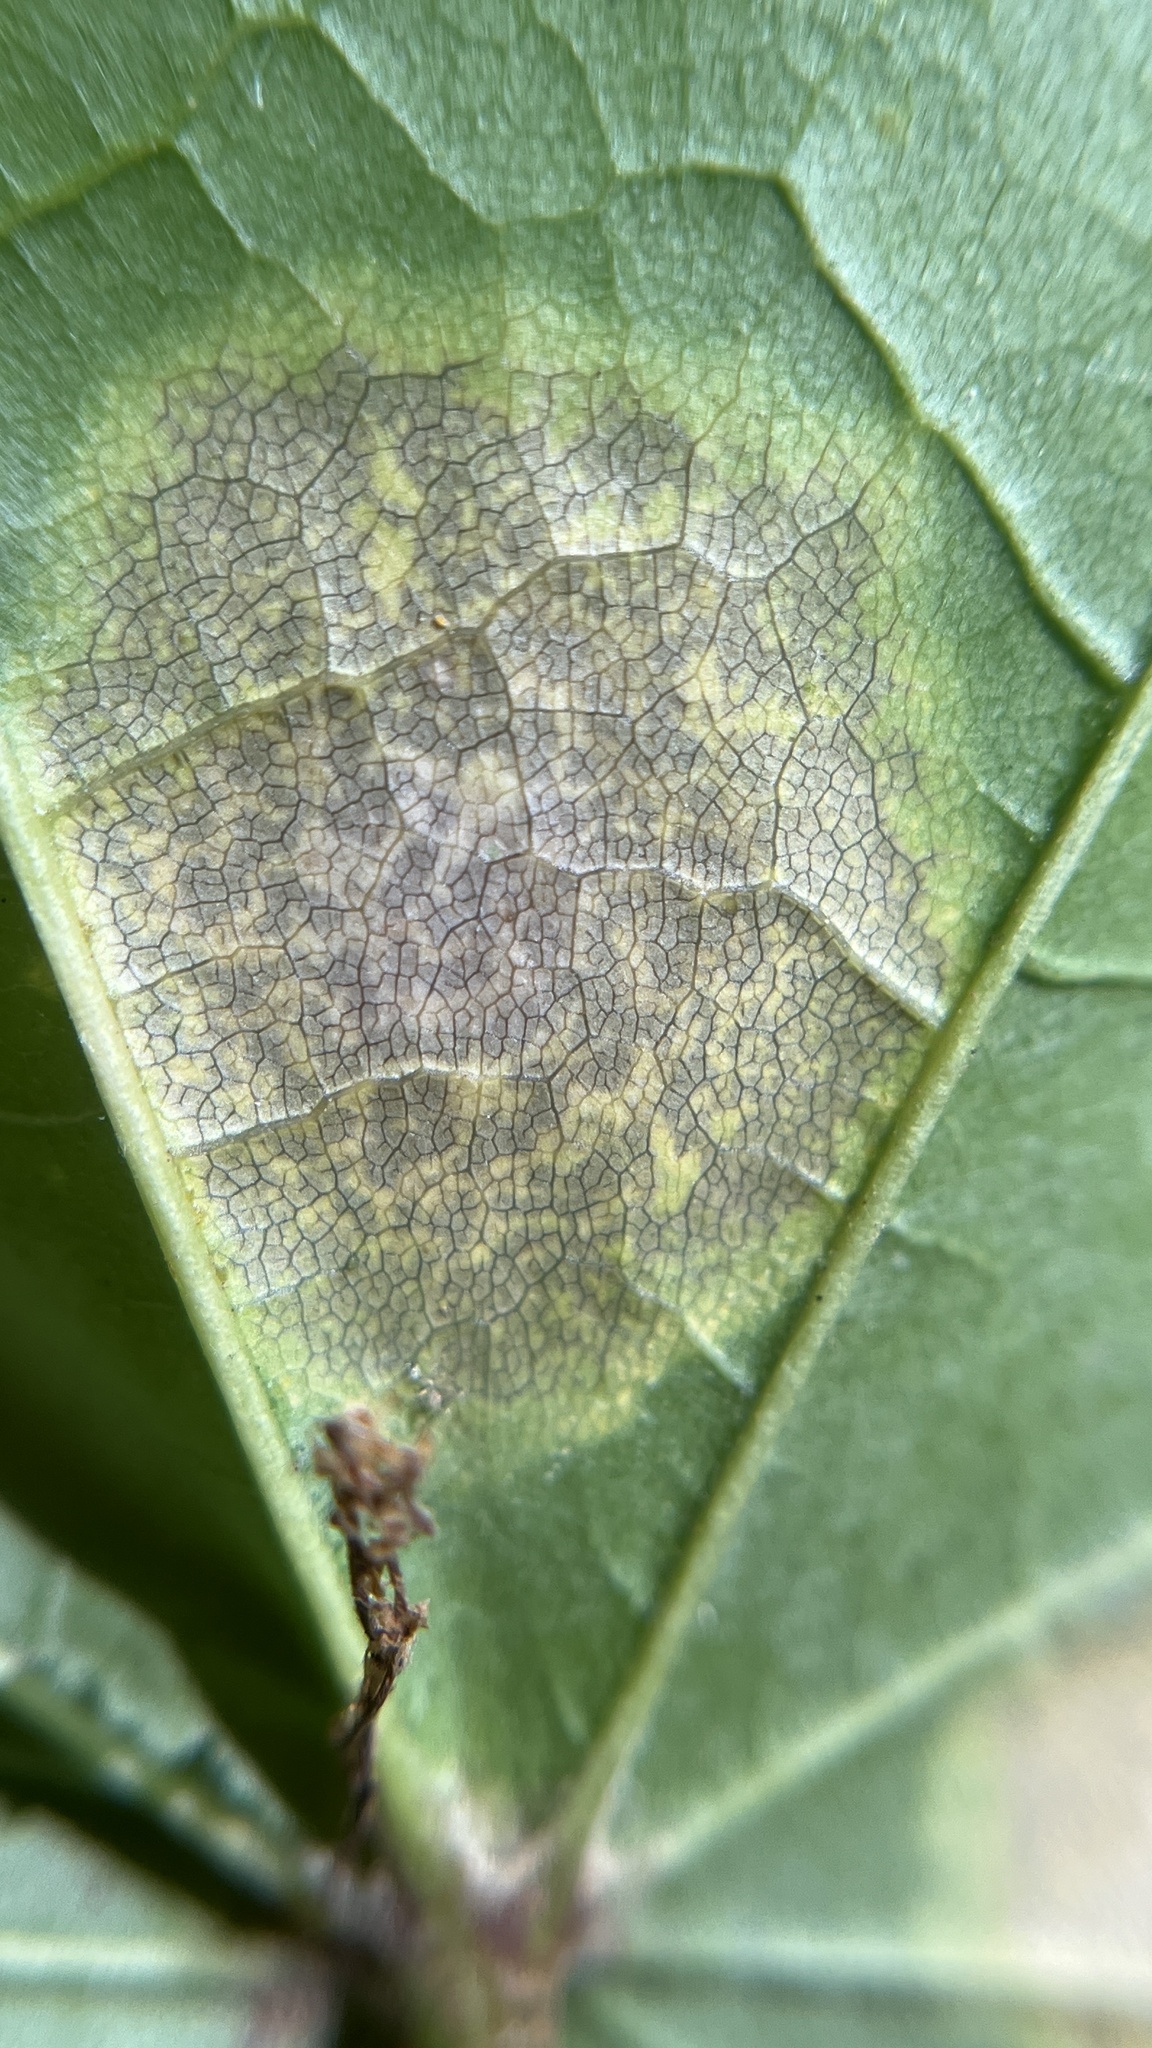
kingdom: Fungi
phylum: Ascomycota
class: Leotiomycetes
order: Rhytismatales
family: Rhytismataceae
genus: Rhytisma
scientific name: Rhytisma acerinum
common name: European tar spot
